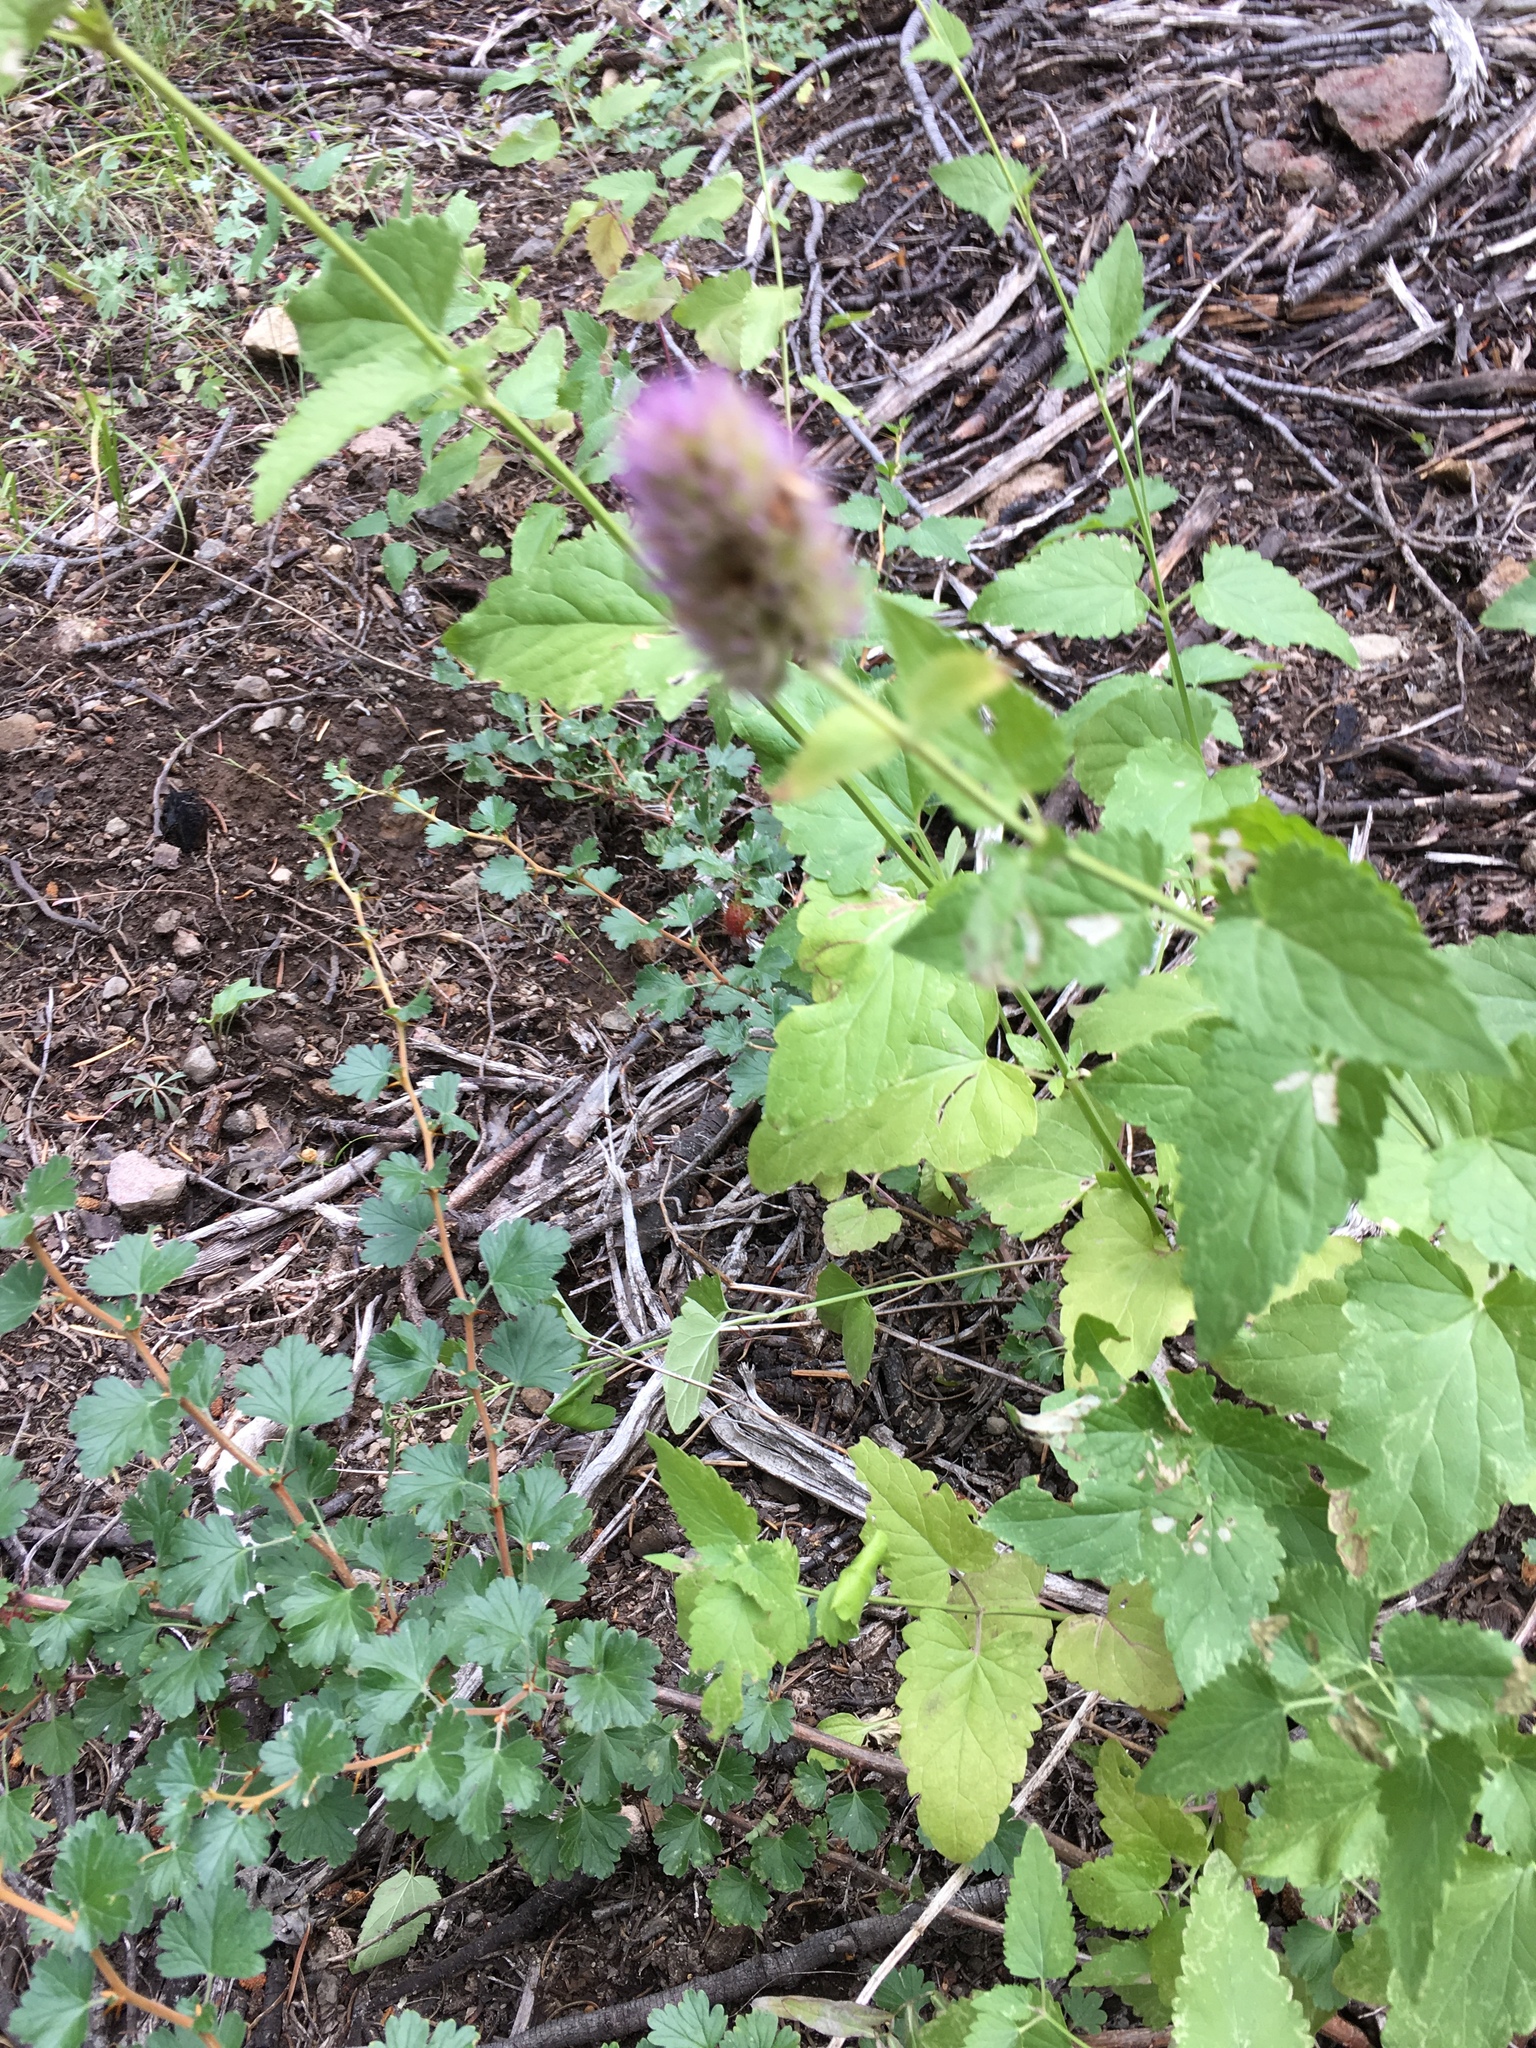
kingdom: Plantae
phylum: Tracheophyta
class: Magnoliopsida
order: Lamiales
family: Lamiaceae
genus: Agastache
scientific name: Agastache urticifolia
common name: Horsemint giant hyssop
